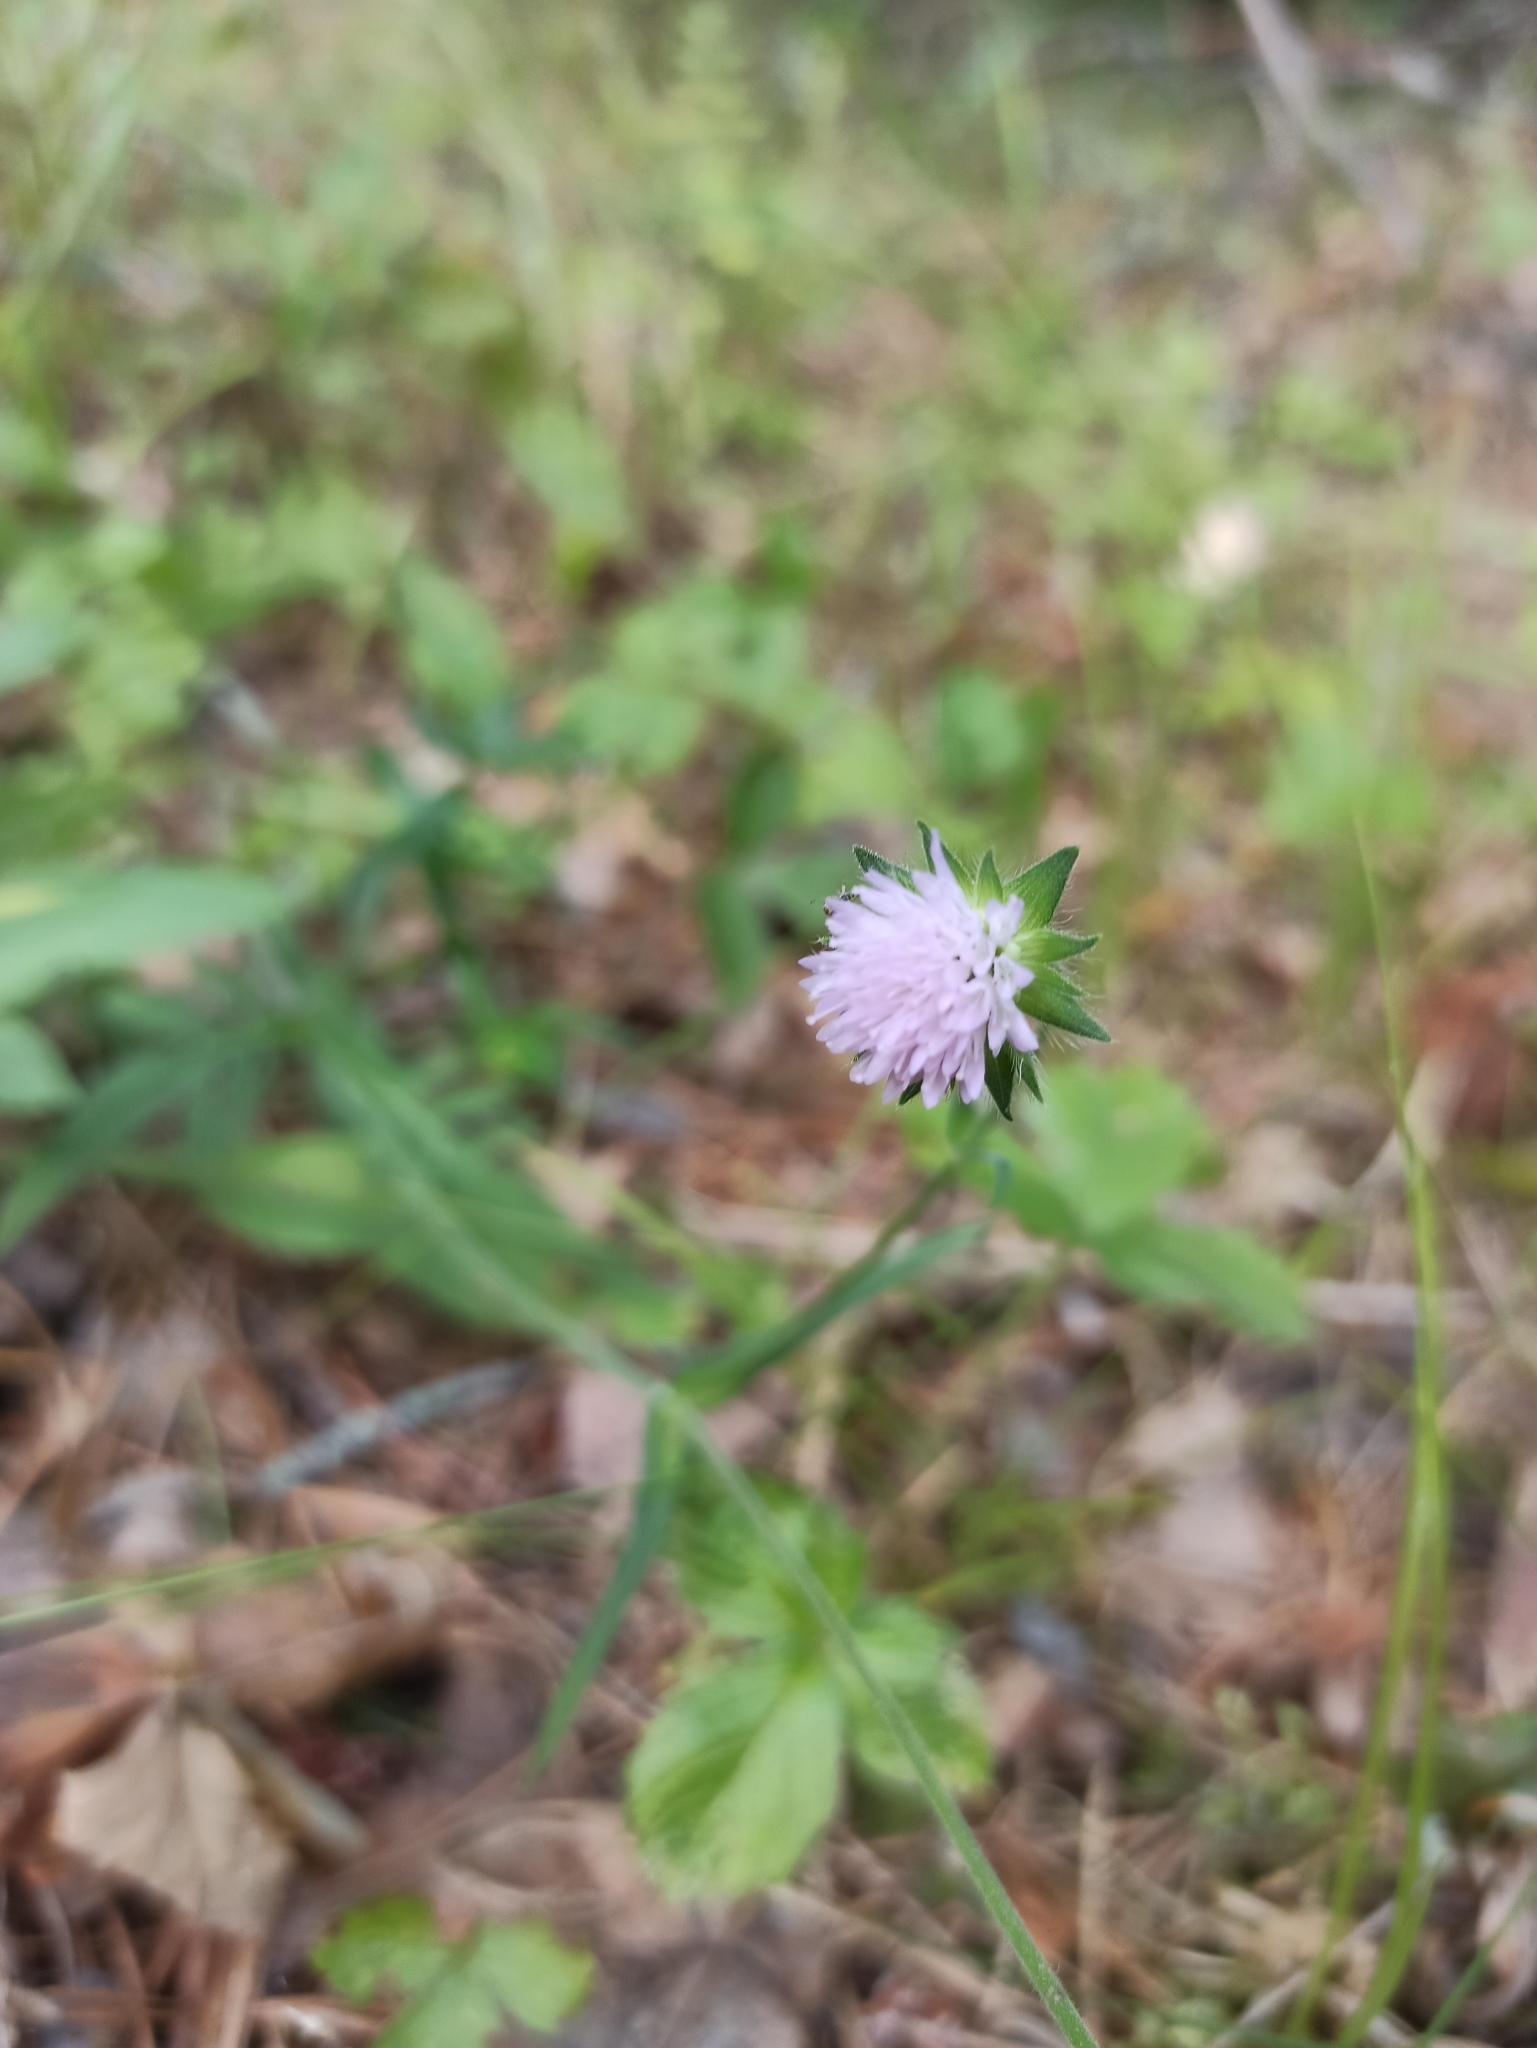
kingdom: Plantae
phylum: Tracheophyta
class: Magnoliopsida
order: Dipsacales
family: Caprifoliaceae
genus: Knautia
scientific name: Knautia arvensis
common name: Field scabiosa
